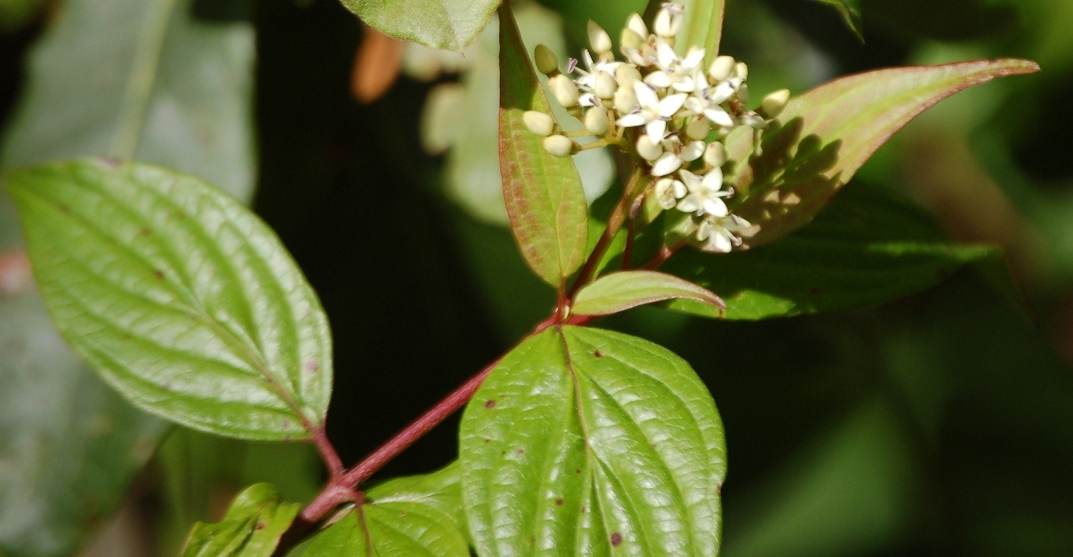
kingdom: Plantae
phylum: Tracheophyta
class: Magnoliopsida
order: Cornales
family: Cornaceae
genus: Cornus
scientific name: Cornus excelsa
